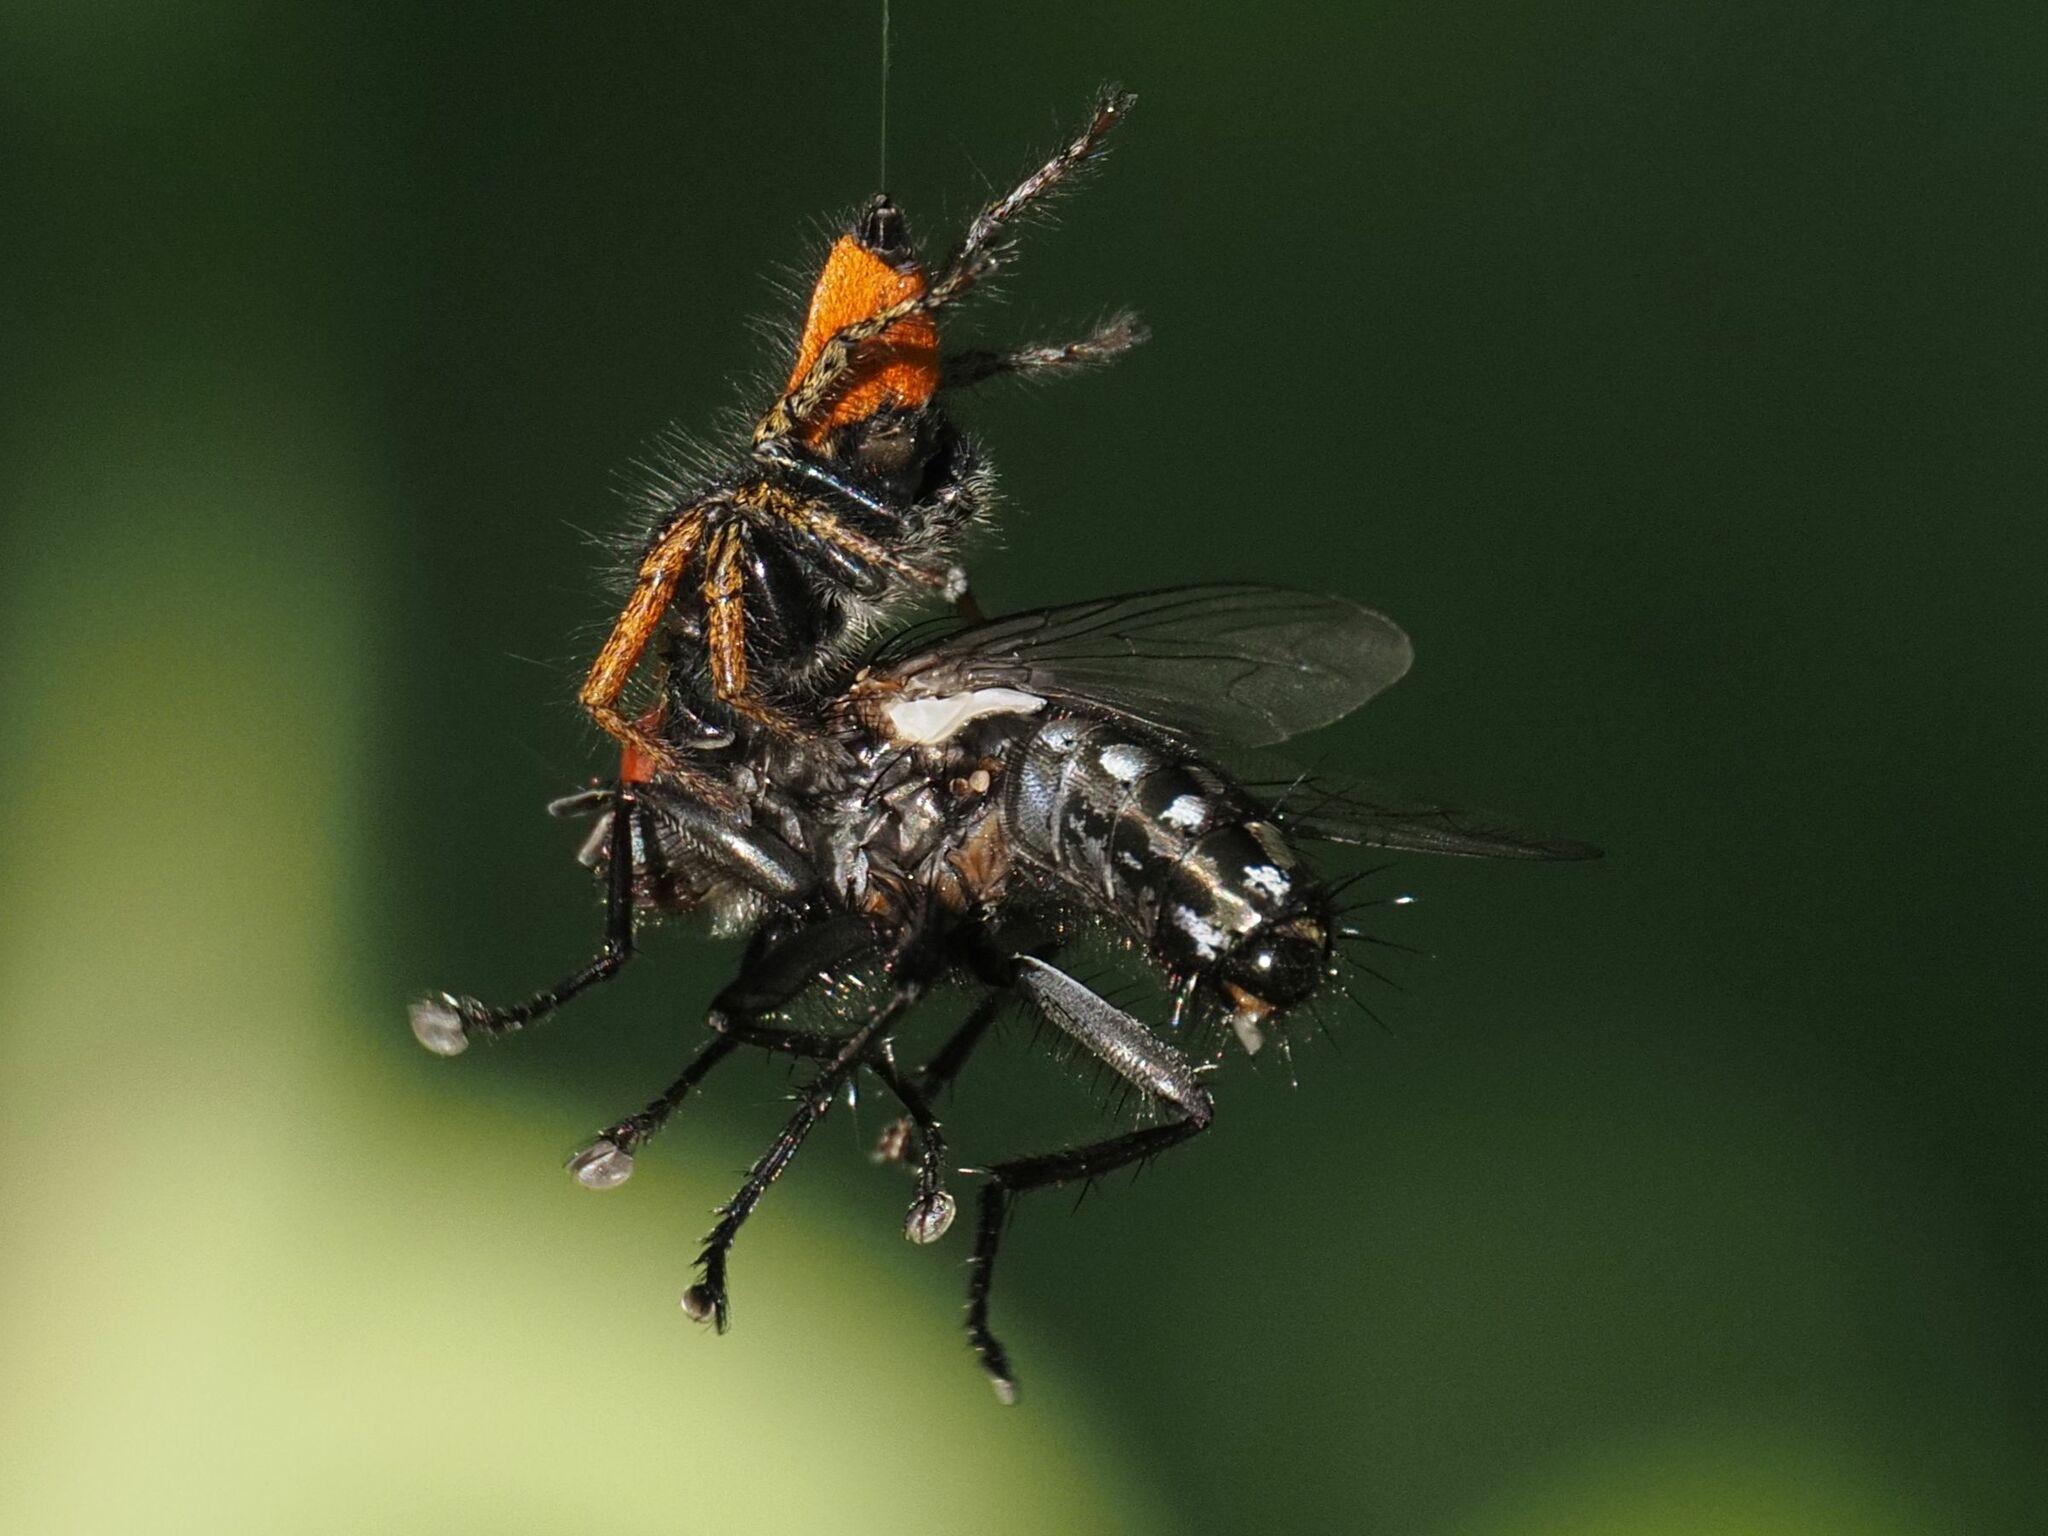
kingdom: Animalia
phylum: Arthropoda
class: Arachnida
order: Araneae
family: Salticidae
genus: Philaeus
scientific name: Philaeus chrysops
